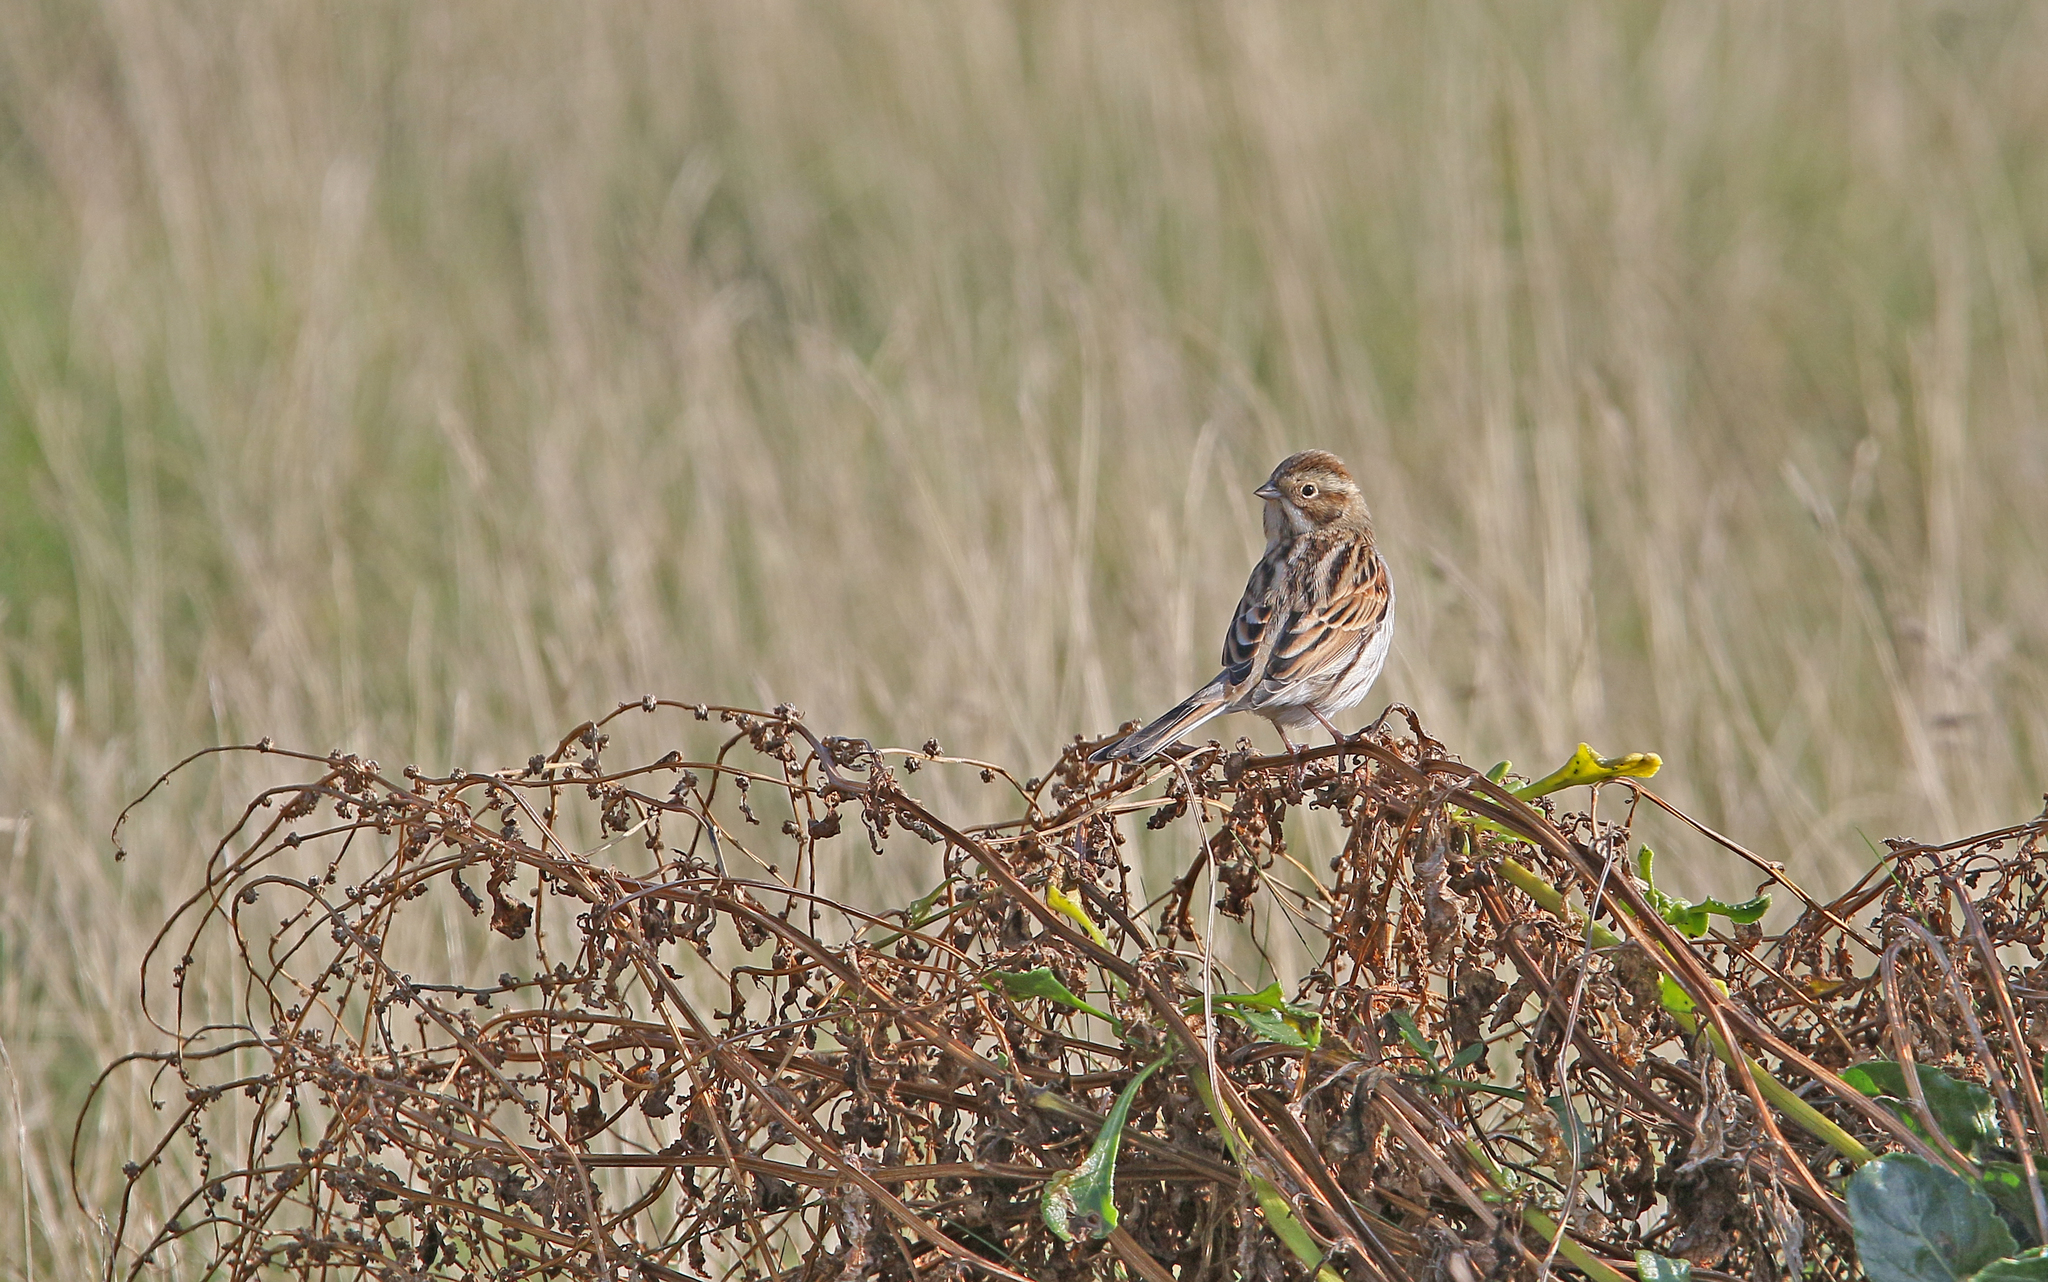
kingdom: Animalia
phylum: Chordata
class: Aves
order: Passeriformes
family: Emberizidae
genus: Emberiza
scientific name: Emberiza schoeniclus
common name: Reed bunting
